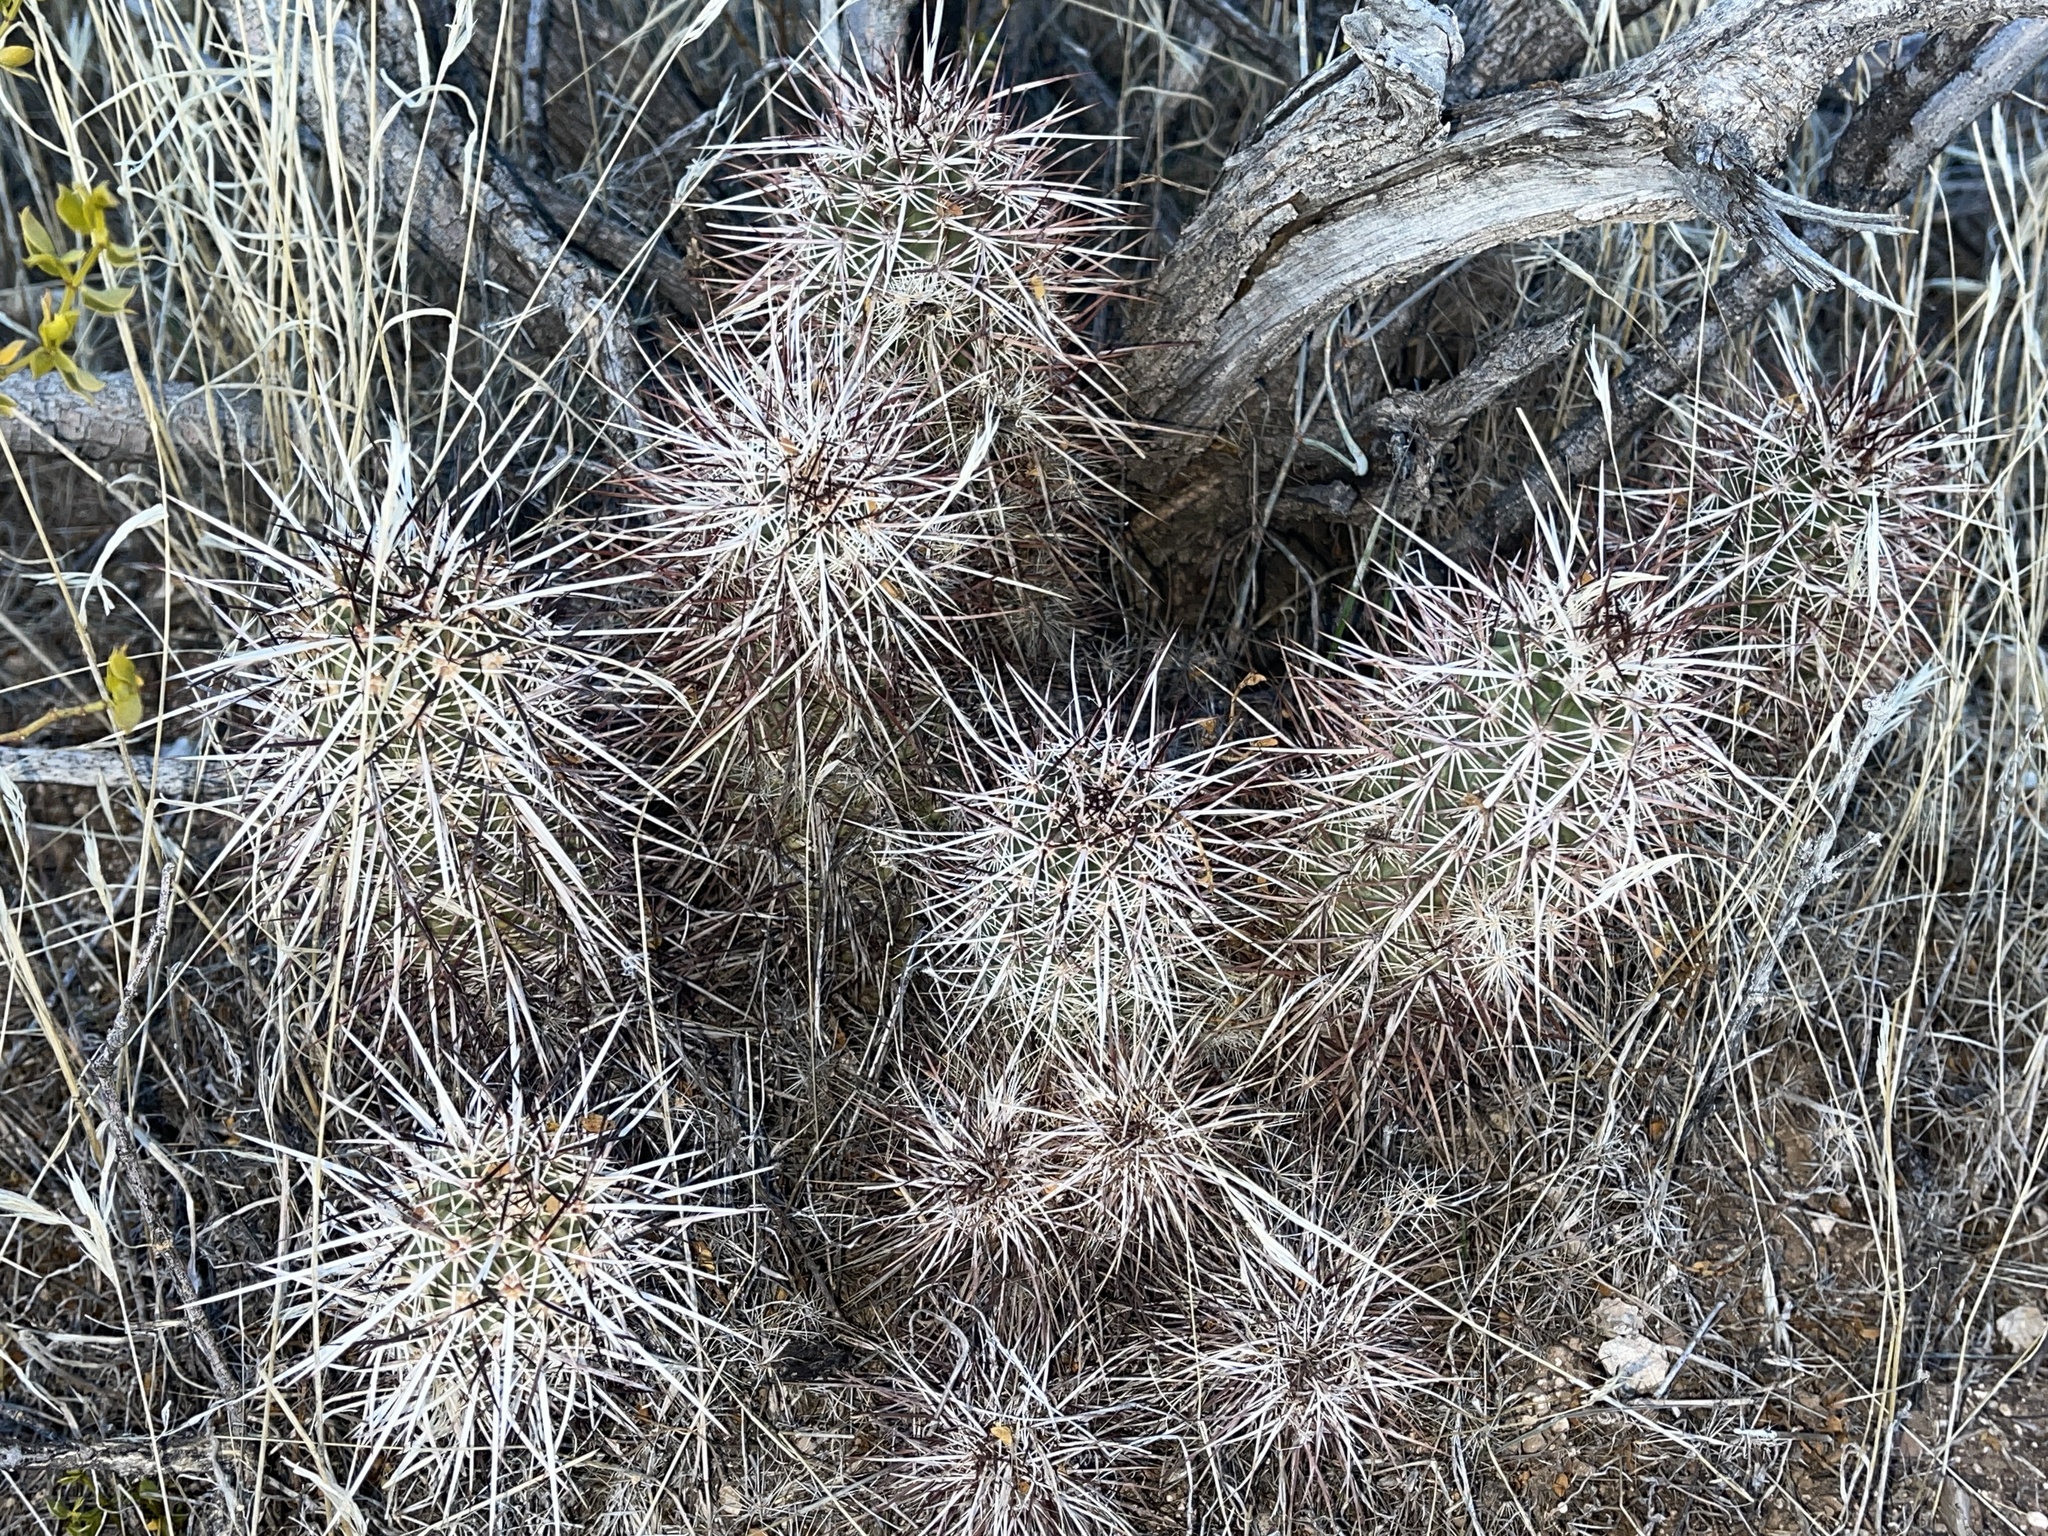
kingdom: Plantae
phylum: Tracheophyta
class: Magnoliopsida
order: Caryophyllales
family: Cactaceae
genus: Echinocereus
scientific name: Echinocereus engelmannii
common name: Engelmann's hedgehog cactus
